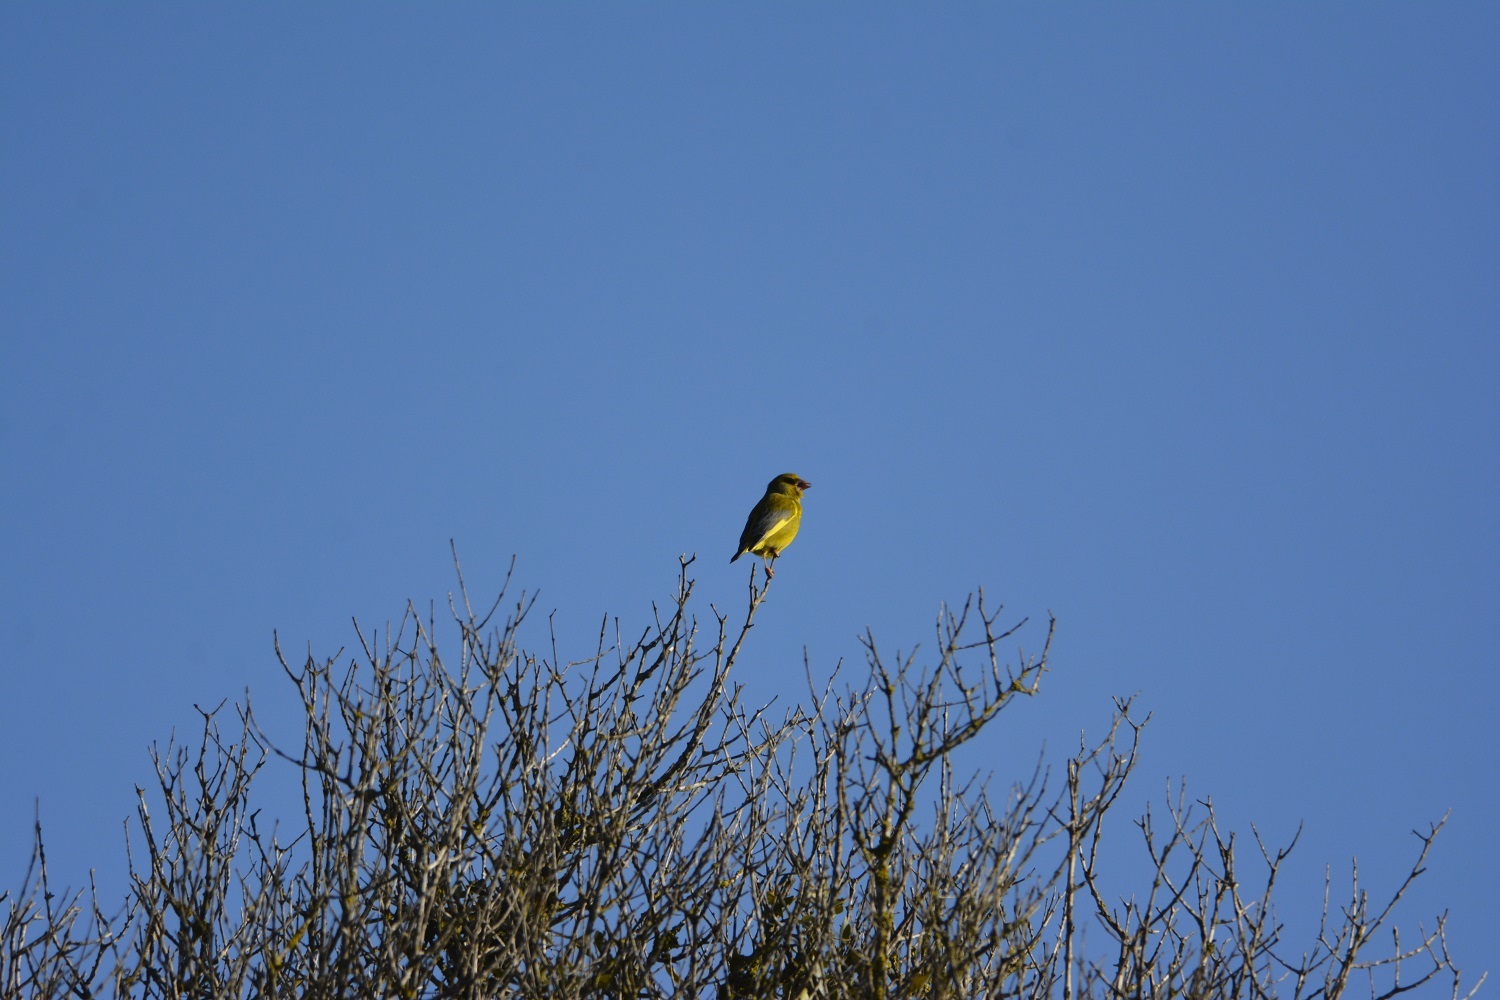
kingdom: Plantae
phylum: Tracheophyta
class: Liliopsida
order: Poales
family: Poaceae
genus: Chloris
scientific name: Chloris chloris
